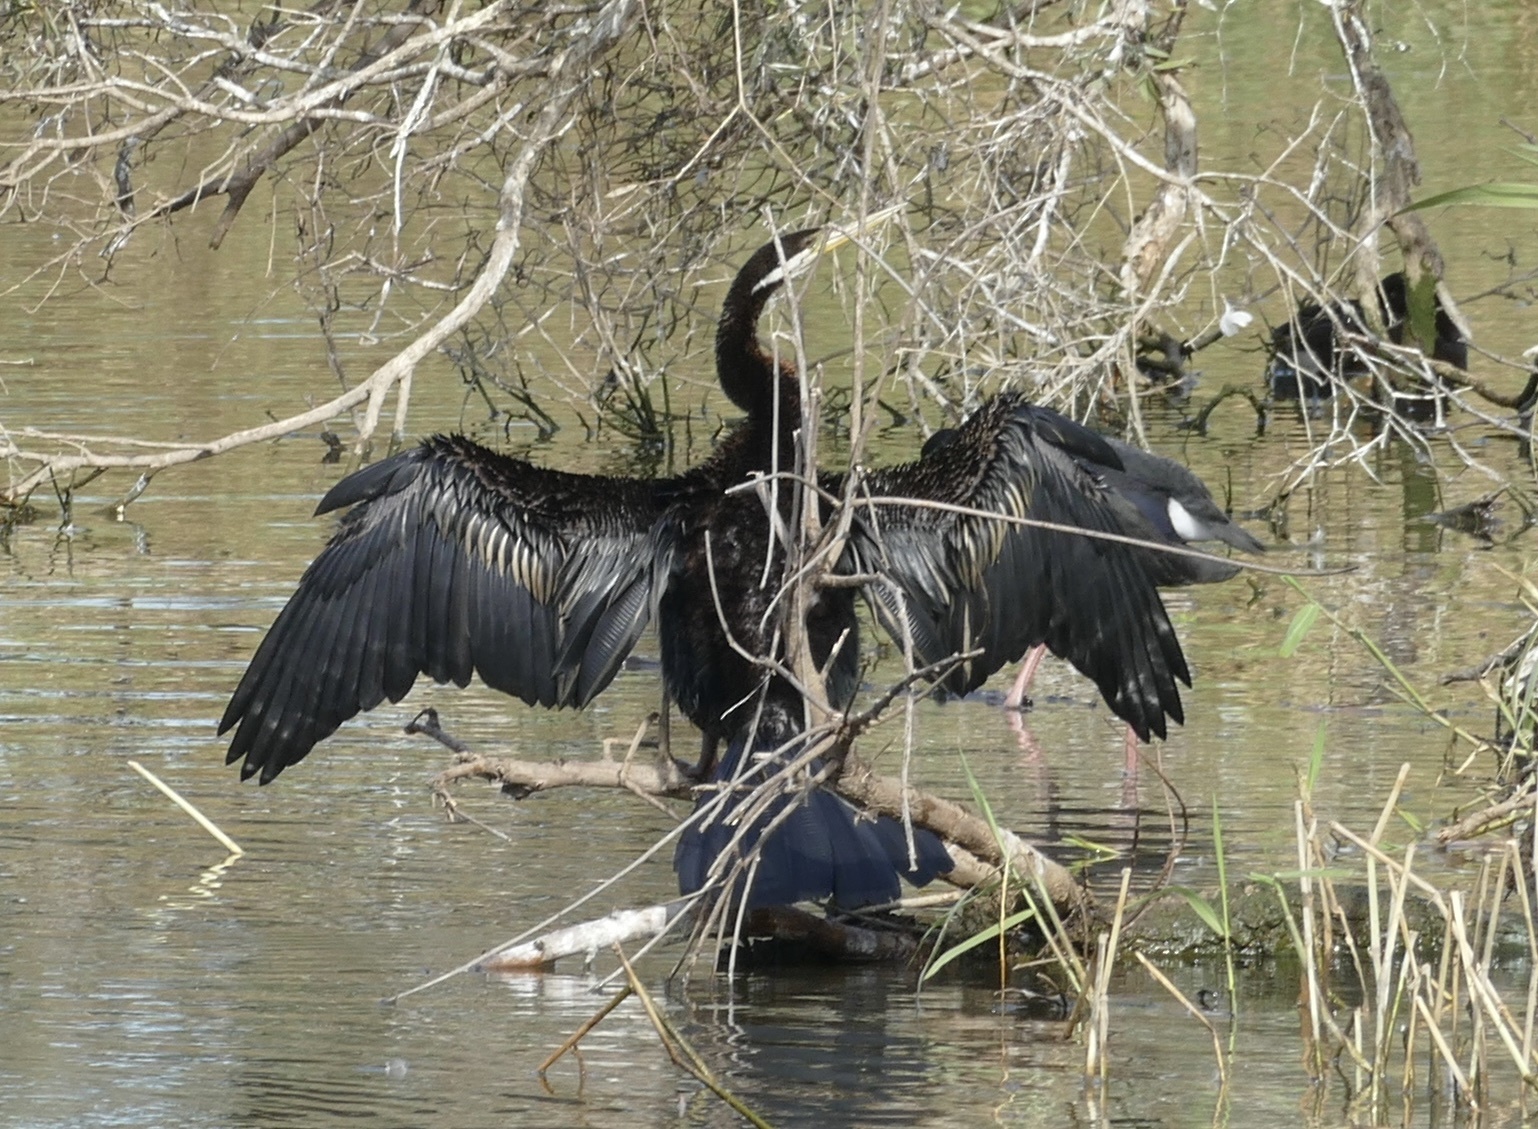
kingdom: Animalia
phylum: Chordata
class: Aves
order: Suliformes
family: Anhingidae
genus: Anhinga
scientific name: Anhinga novaehollandiae
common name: Australasian darter
